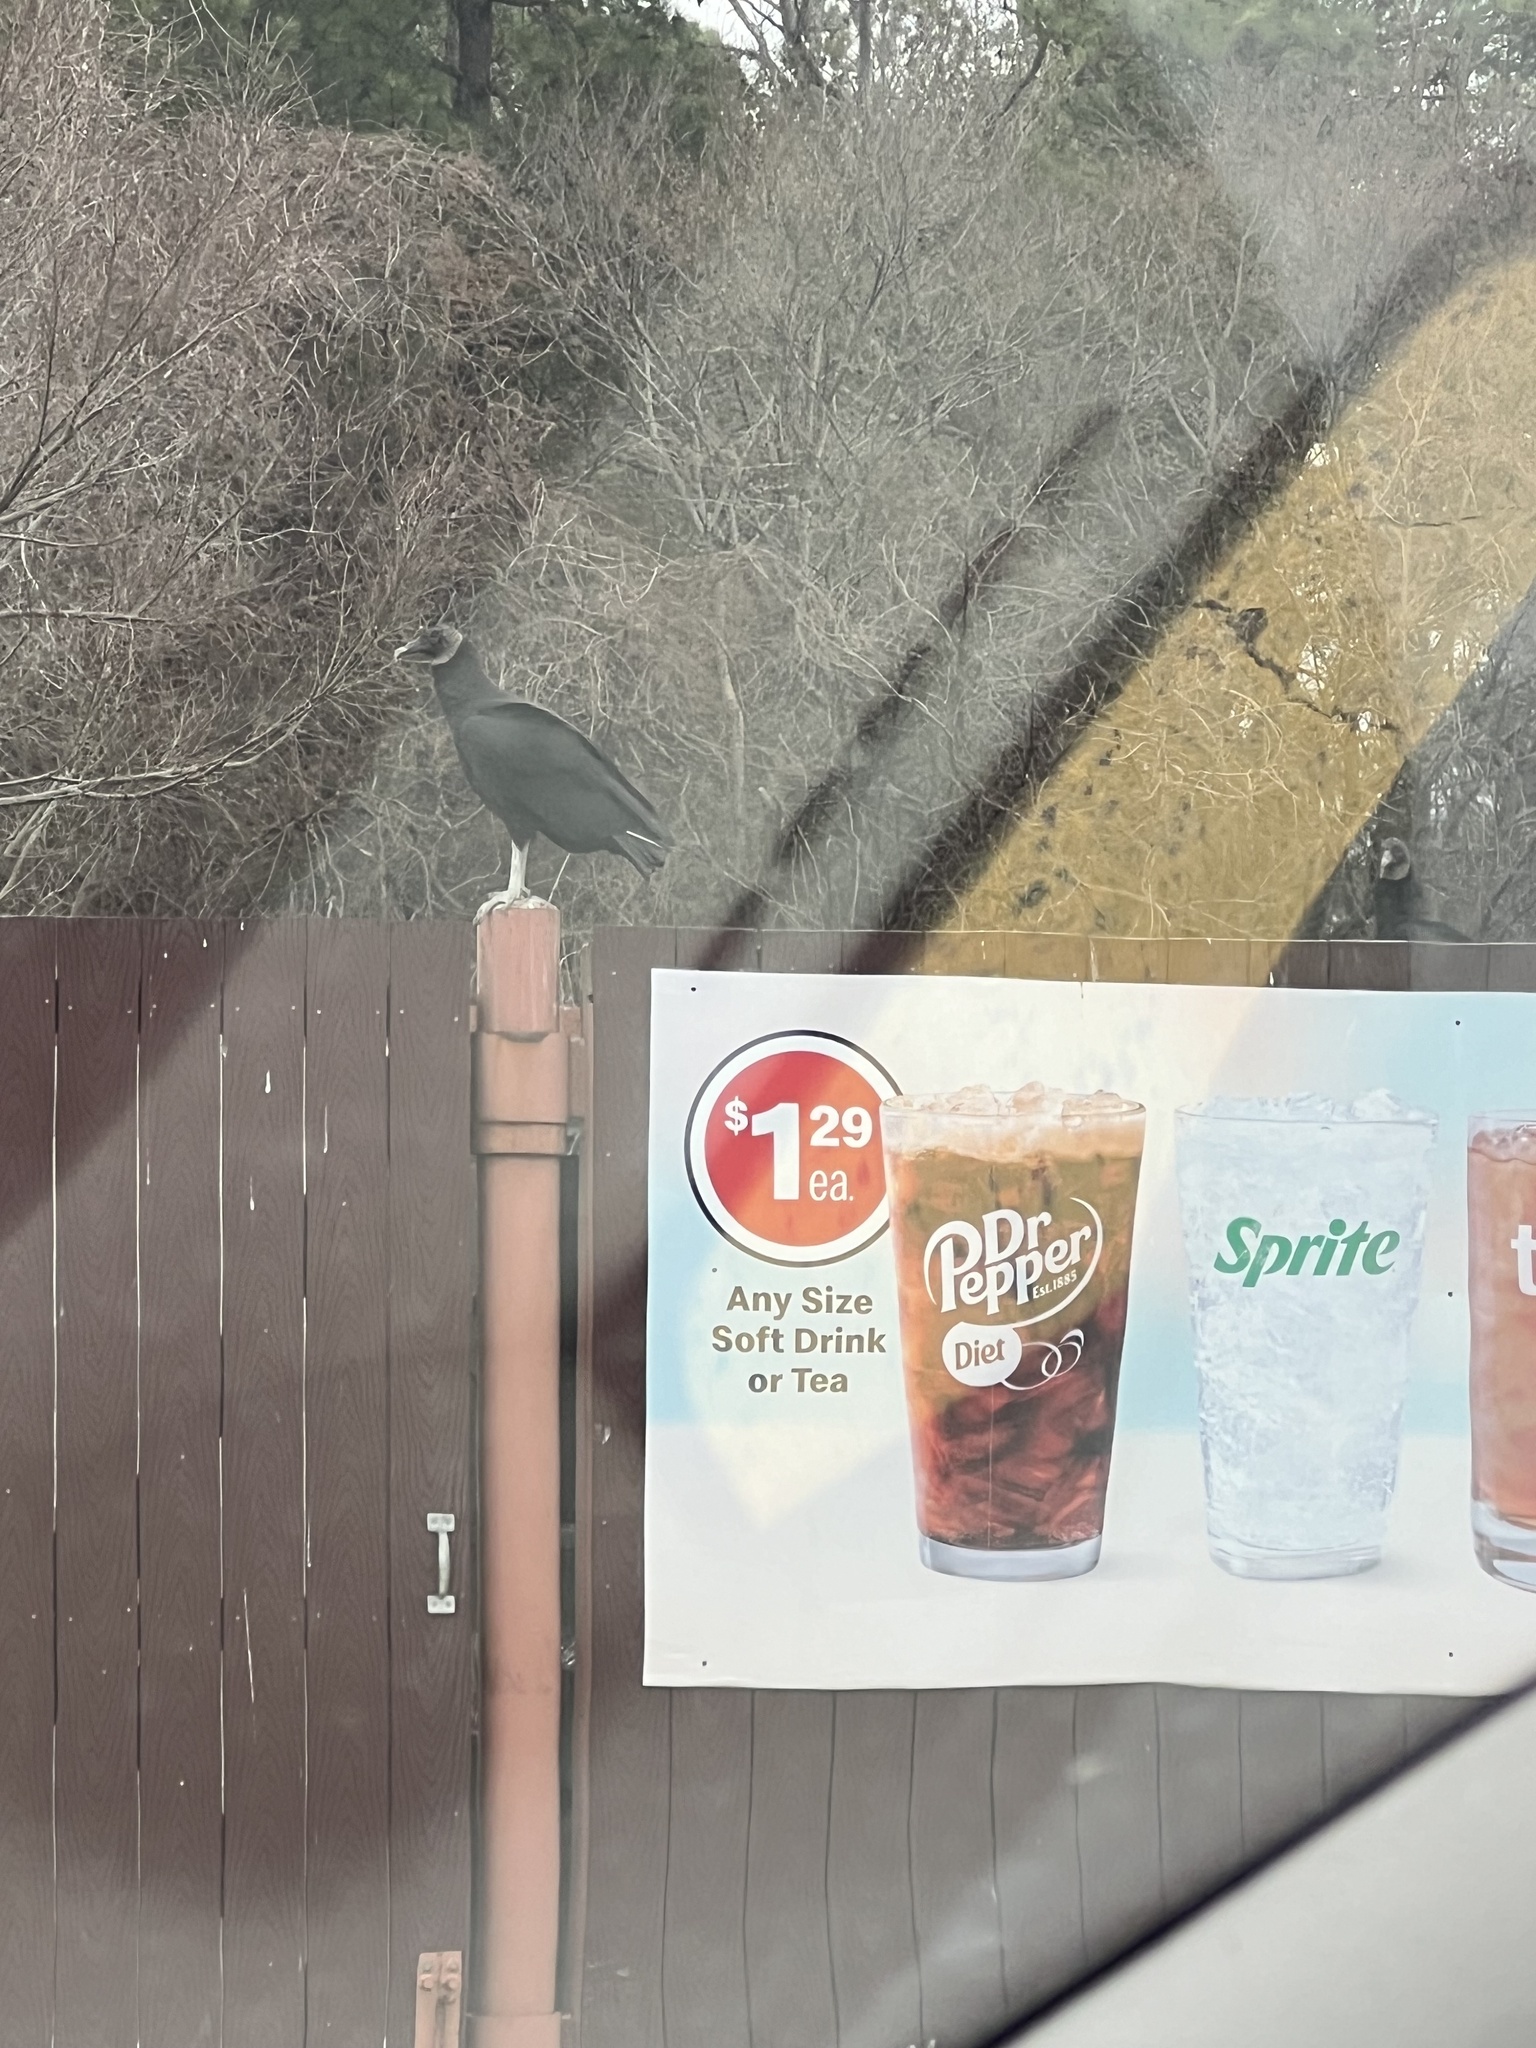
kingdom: Animalia
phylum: Chordata
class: Aves
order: Accipitriformes
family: Cathartidae
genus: Coragyps
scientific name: Coragyps atratus
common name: Black vulture
